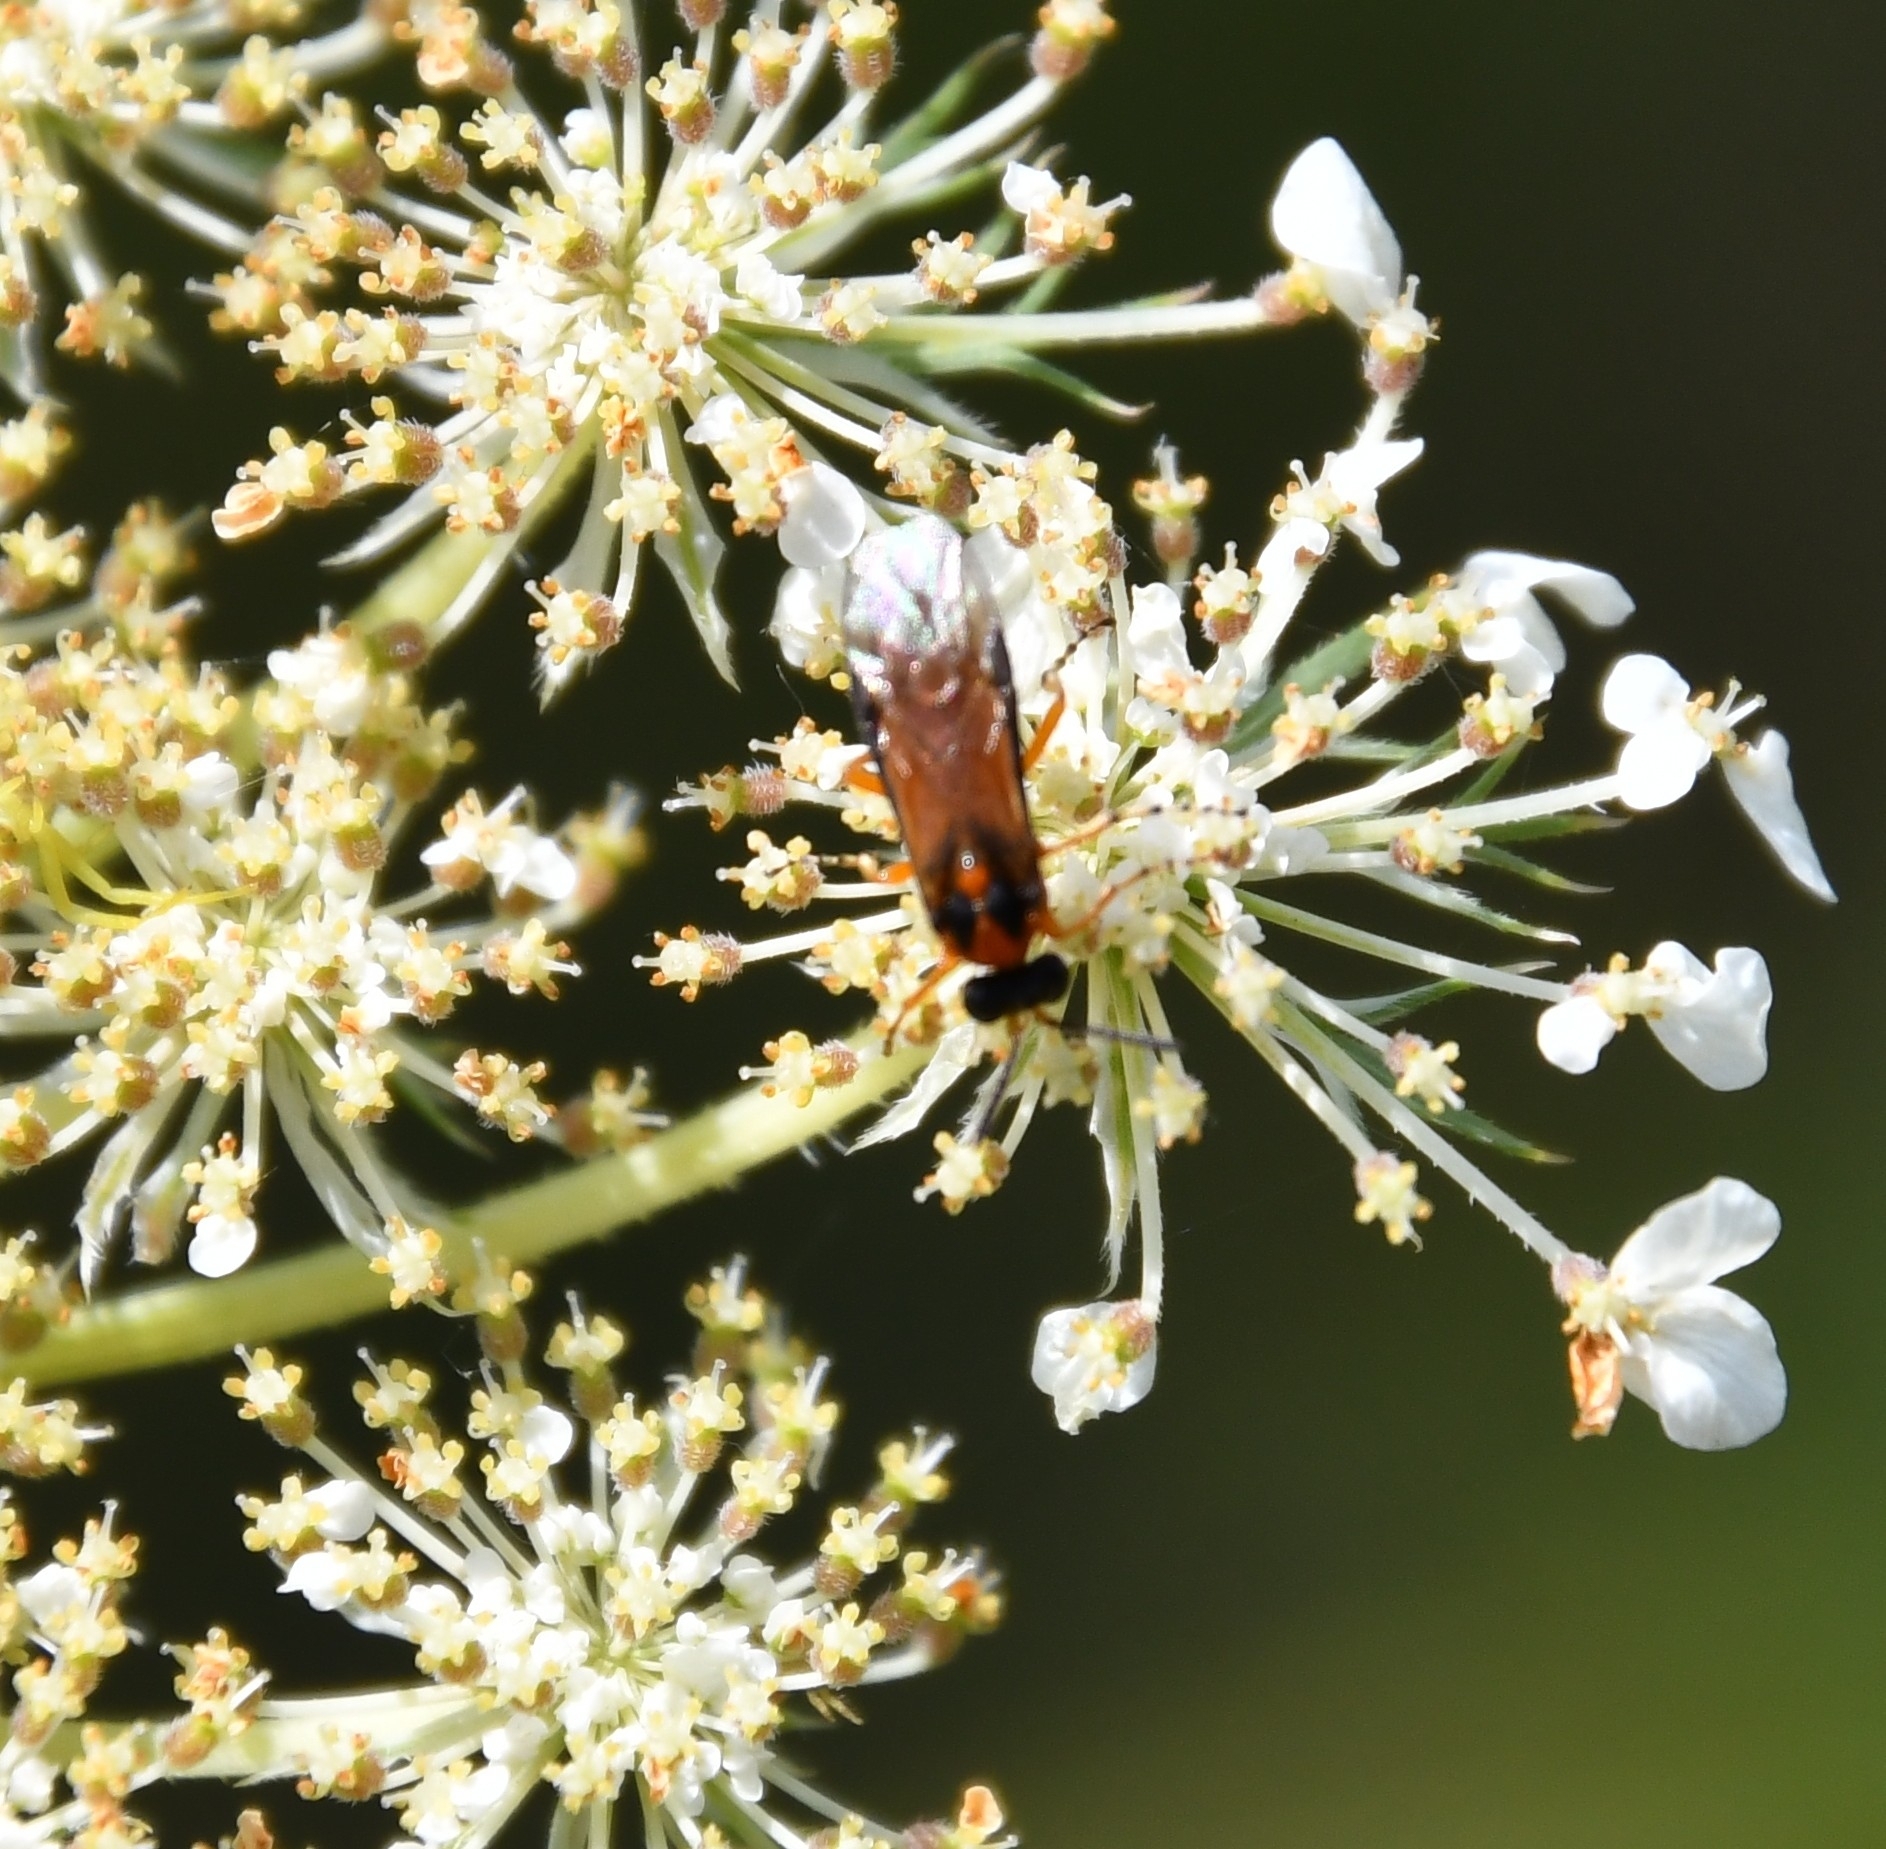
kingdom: Animalia
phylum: Arthropoda
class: Insecta
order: Hymenoptera
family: Tenthredinidae
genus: Athalia
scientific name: Athalia rosae
